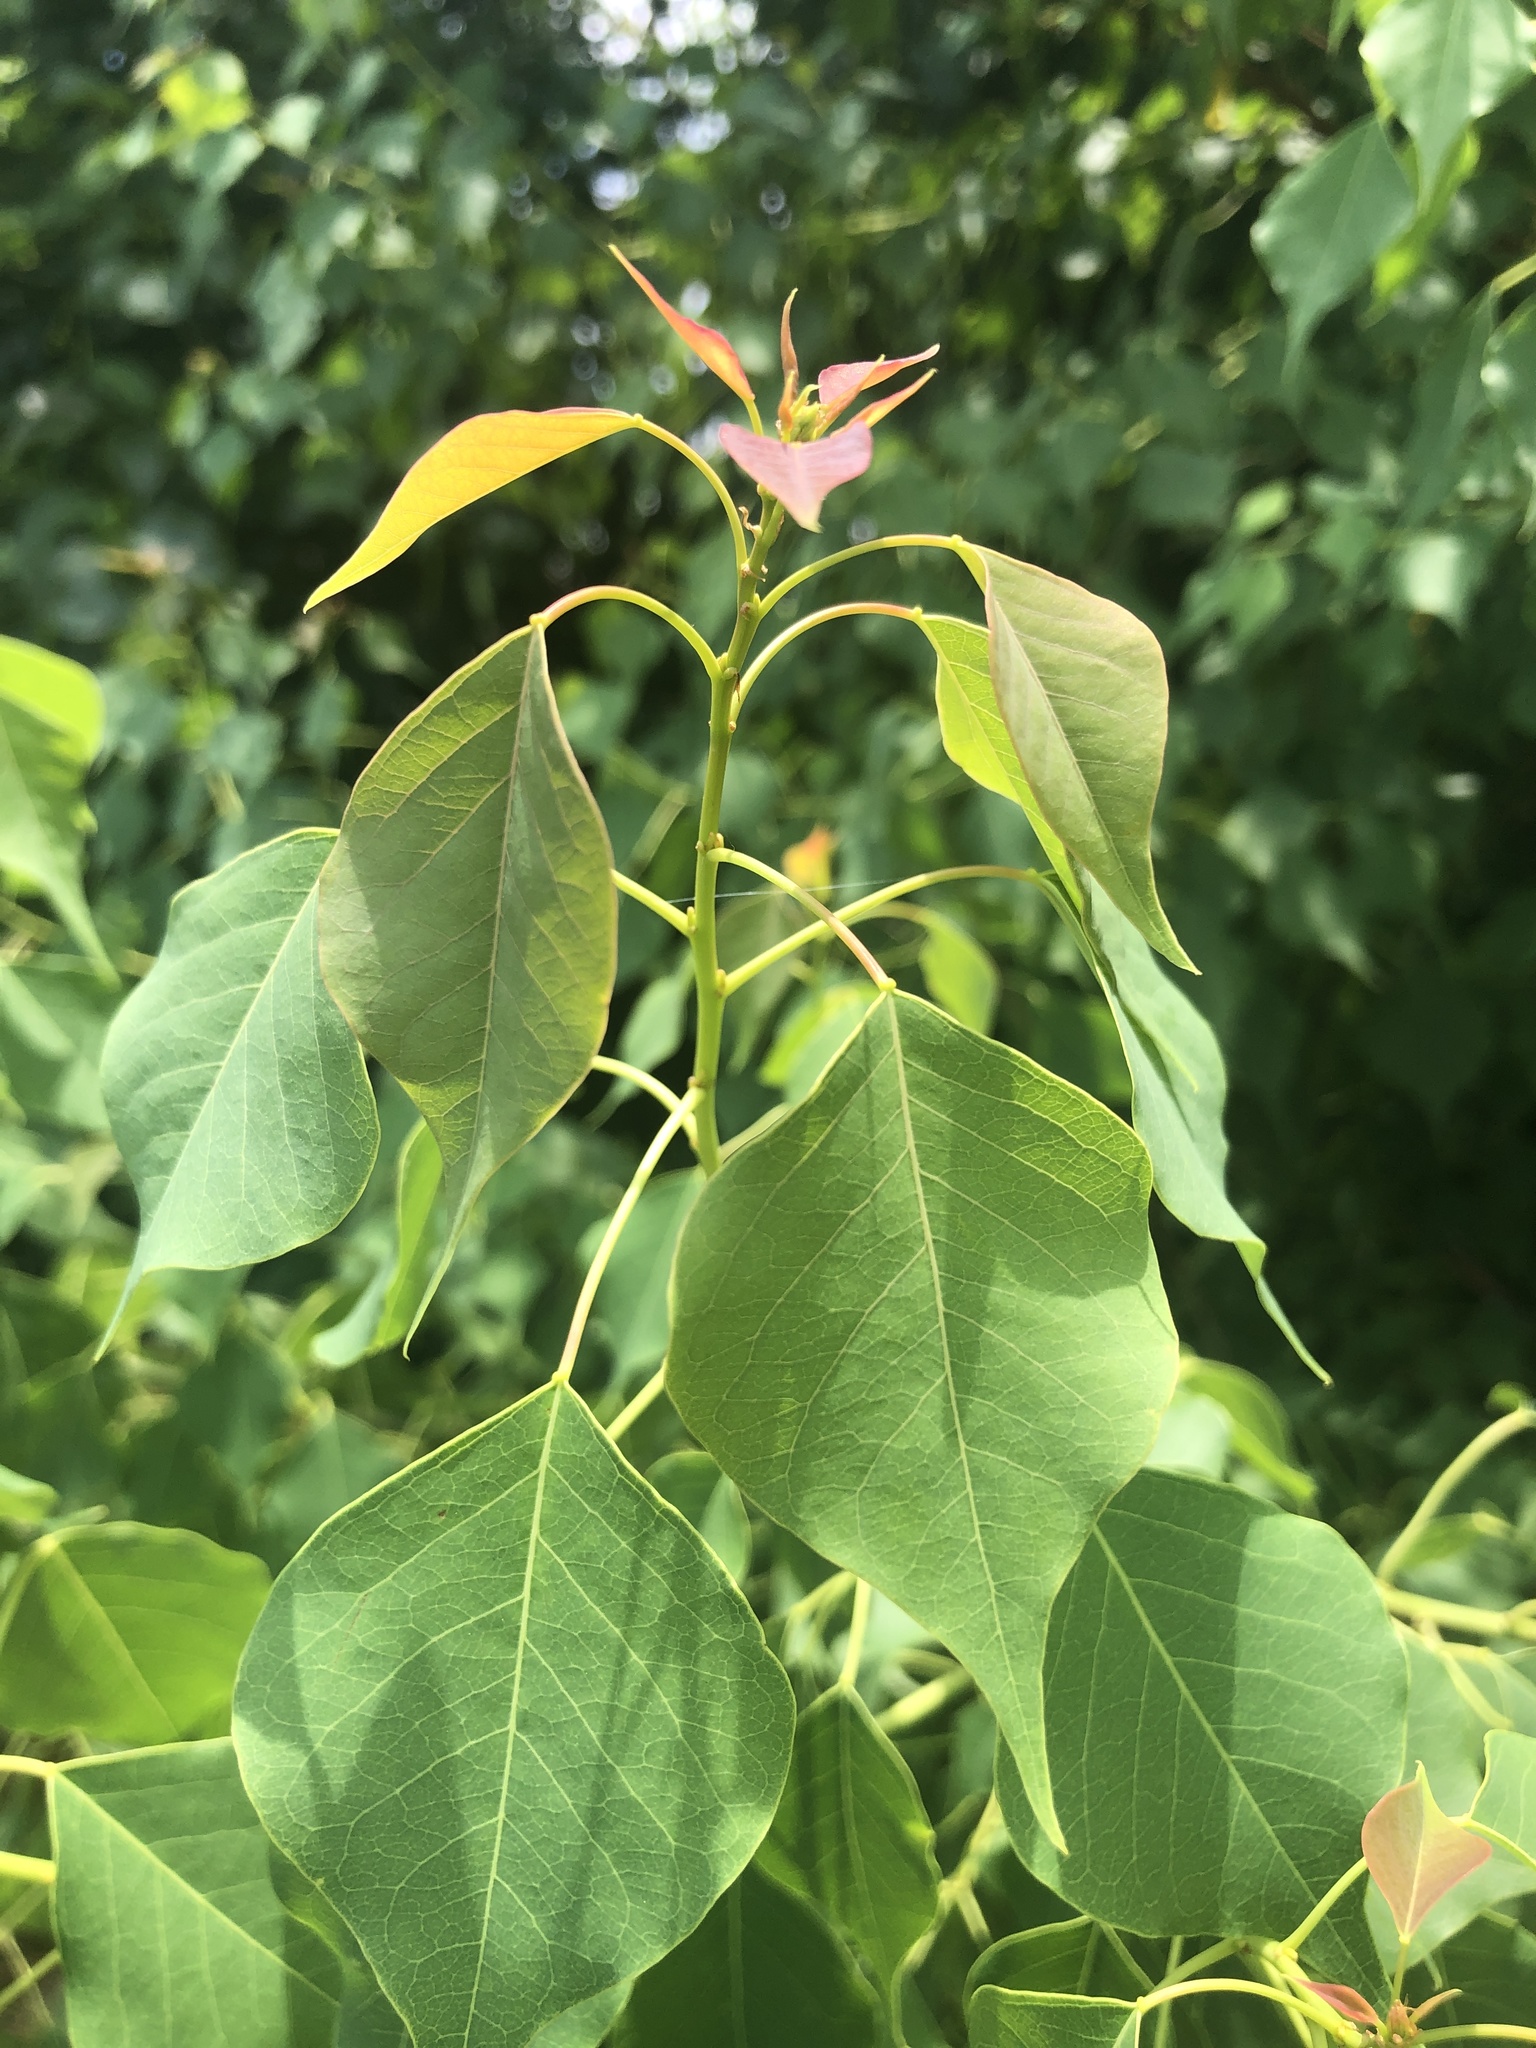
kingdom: Plantae
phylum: Tracheophyta
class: Magnoliopsida
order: Malpighiales
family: Euphorbiaceae
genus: Triadica
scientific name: Triadica sebifera
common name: Chinese tallow
